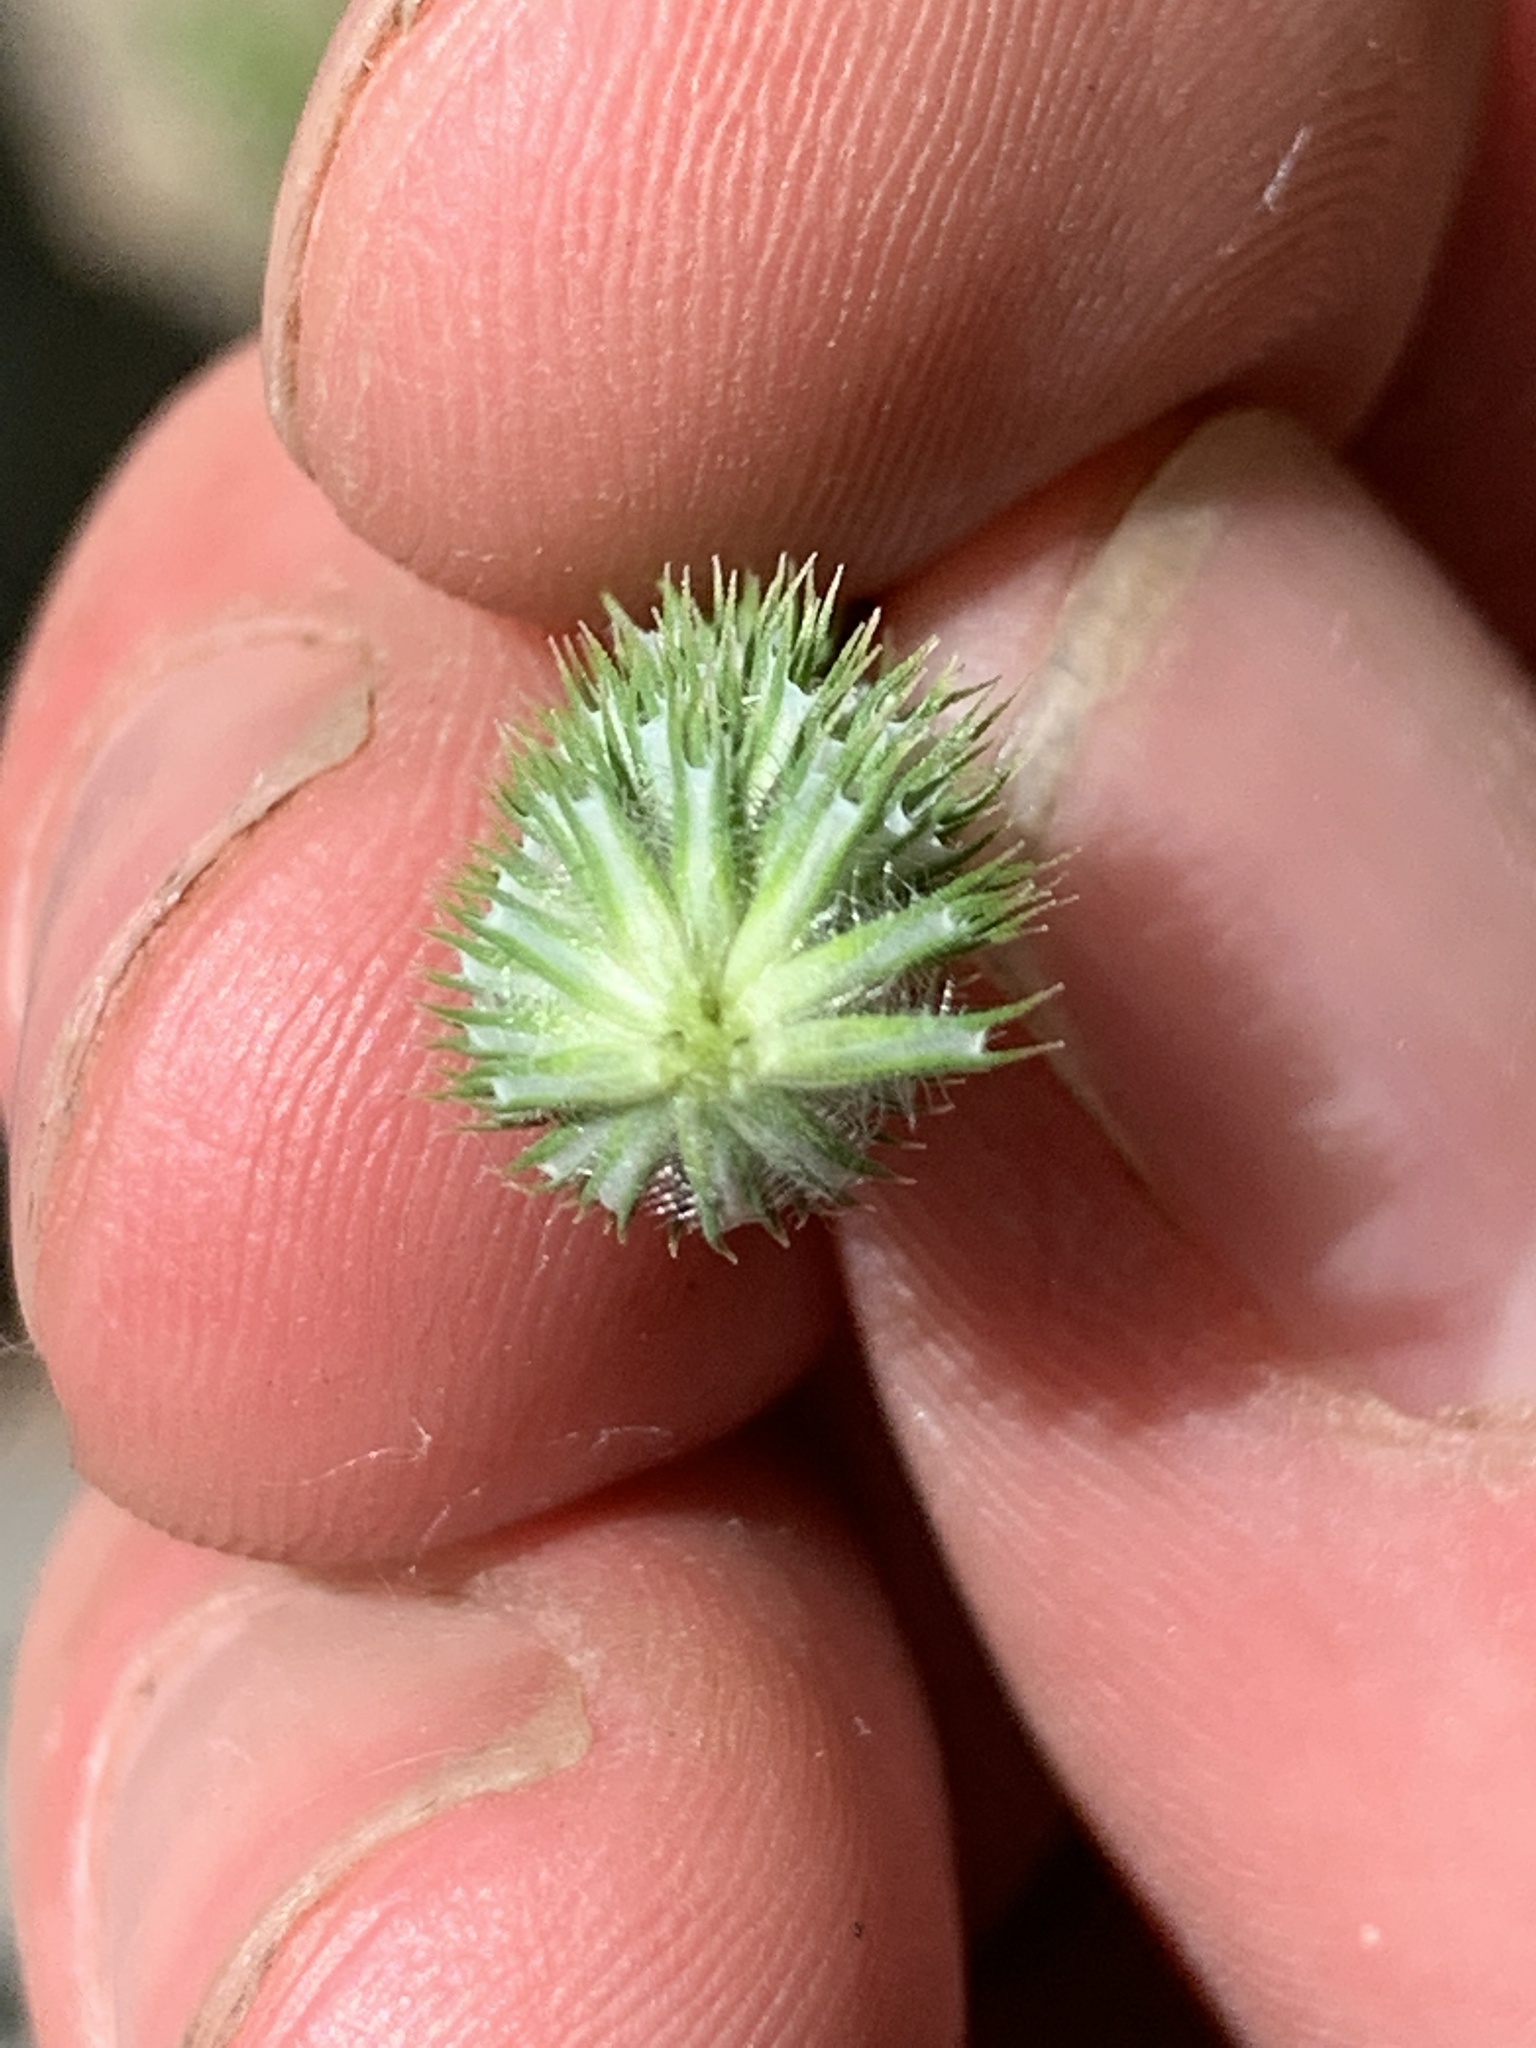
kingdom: Plantae
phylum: Tracheophyta
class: Liliopsida
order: Poales
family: Poaceae
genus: Phleum
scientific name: Phleum pratense
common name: Timothy grass
